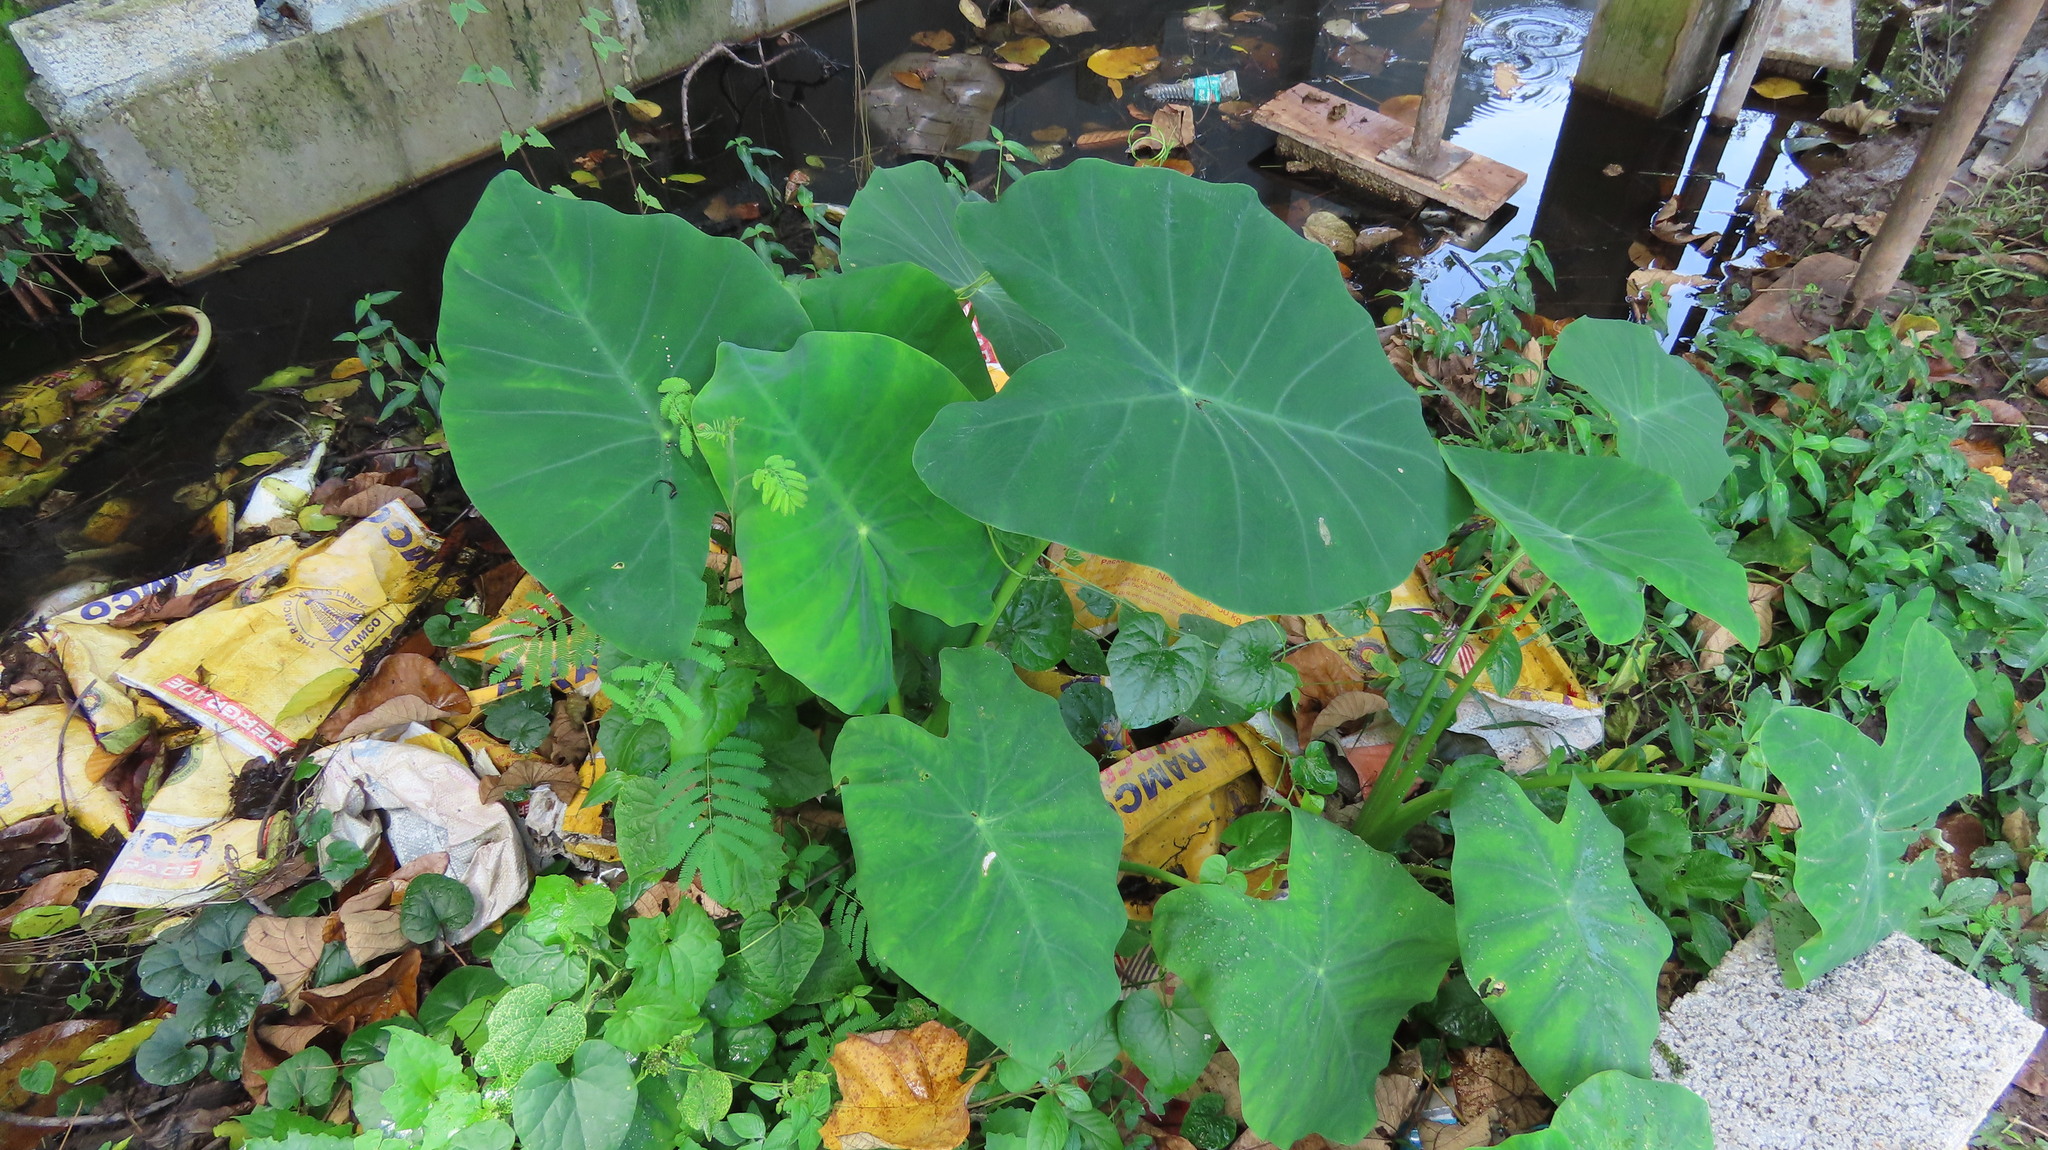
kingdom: Plantae
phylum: Tracheophyta
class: Liliopsida
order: Alismatales
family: Araceae
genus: Colocasia
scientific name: Colocasia esculenta
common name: Taro
